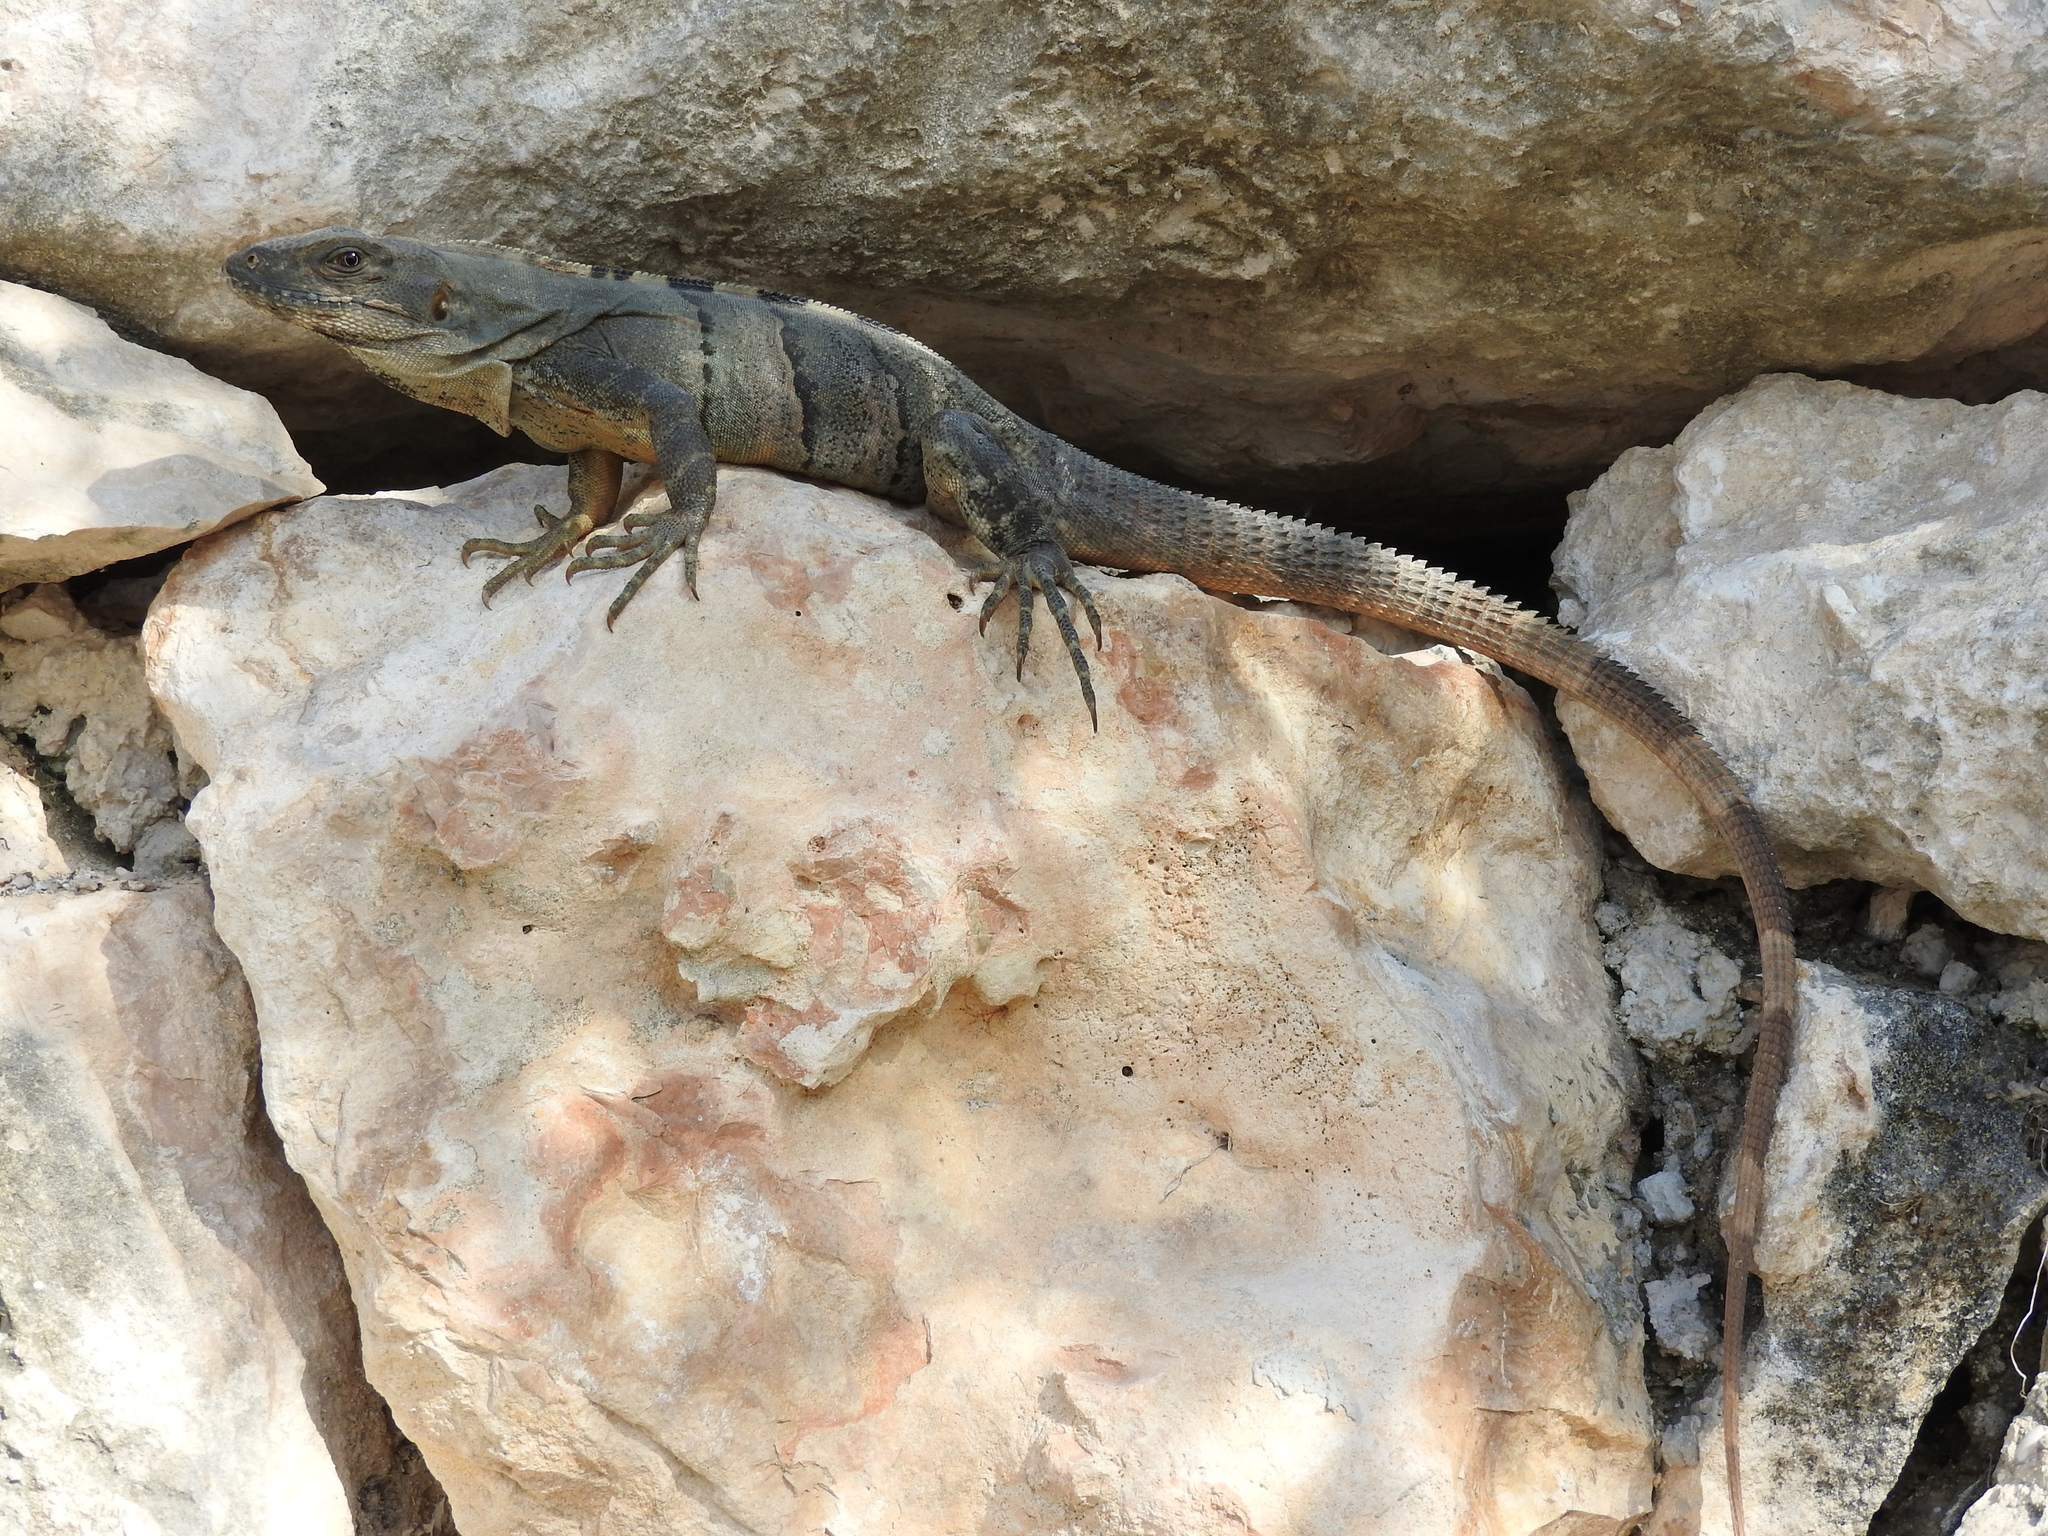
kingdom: Animalia
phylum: Chordata
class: Squamata
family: Iguanidae
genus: Ctenosaura
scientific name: Ctenosaura similis
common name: Black spiny-tailed iguana
